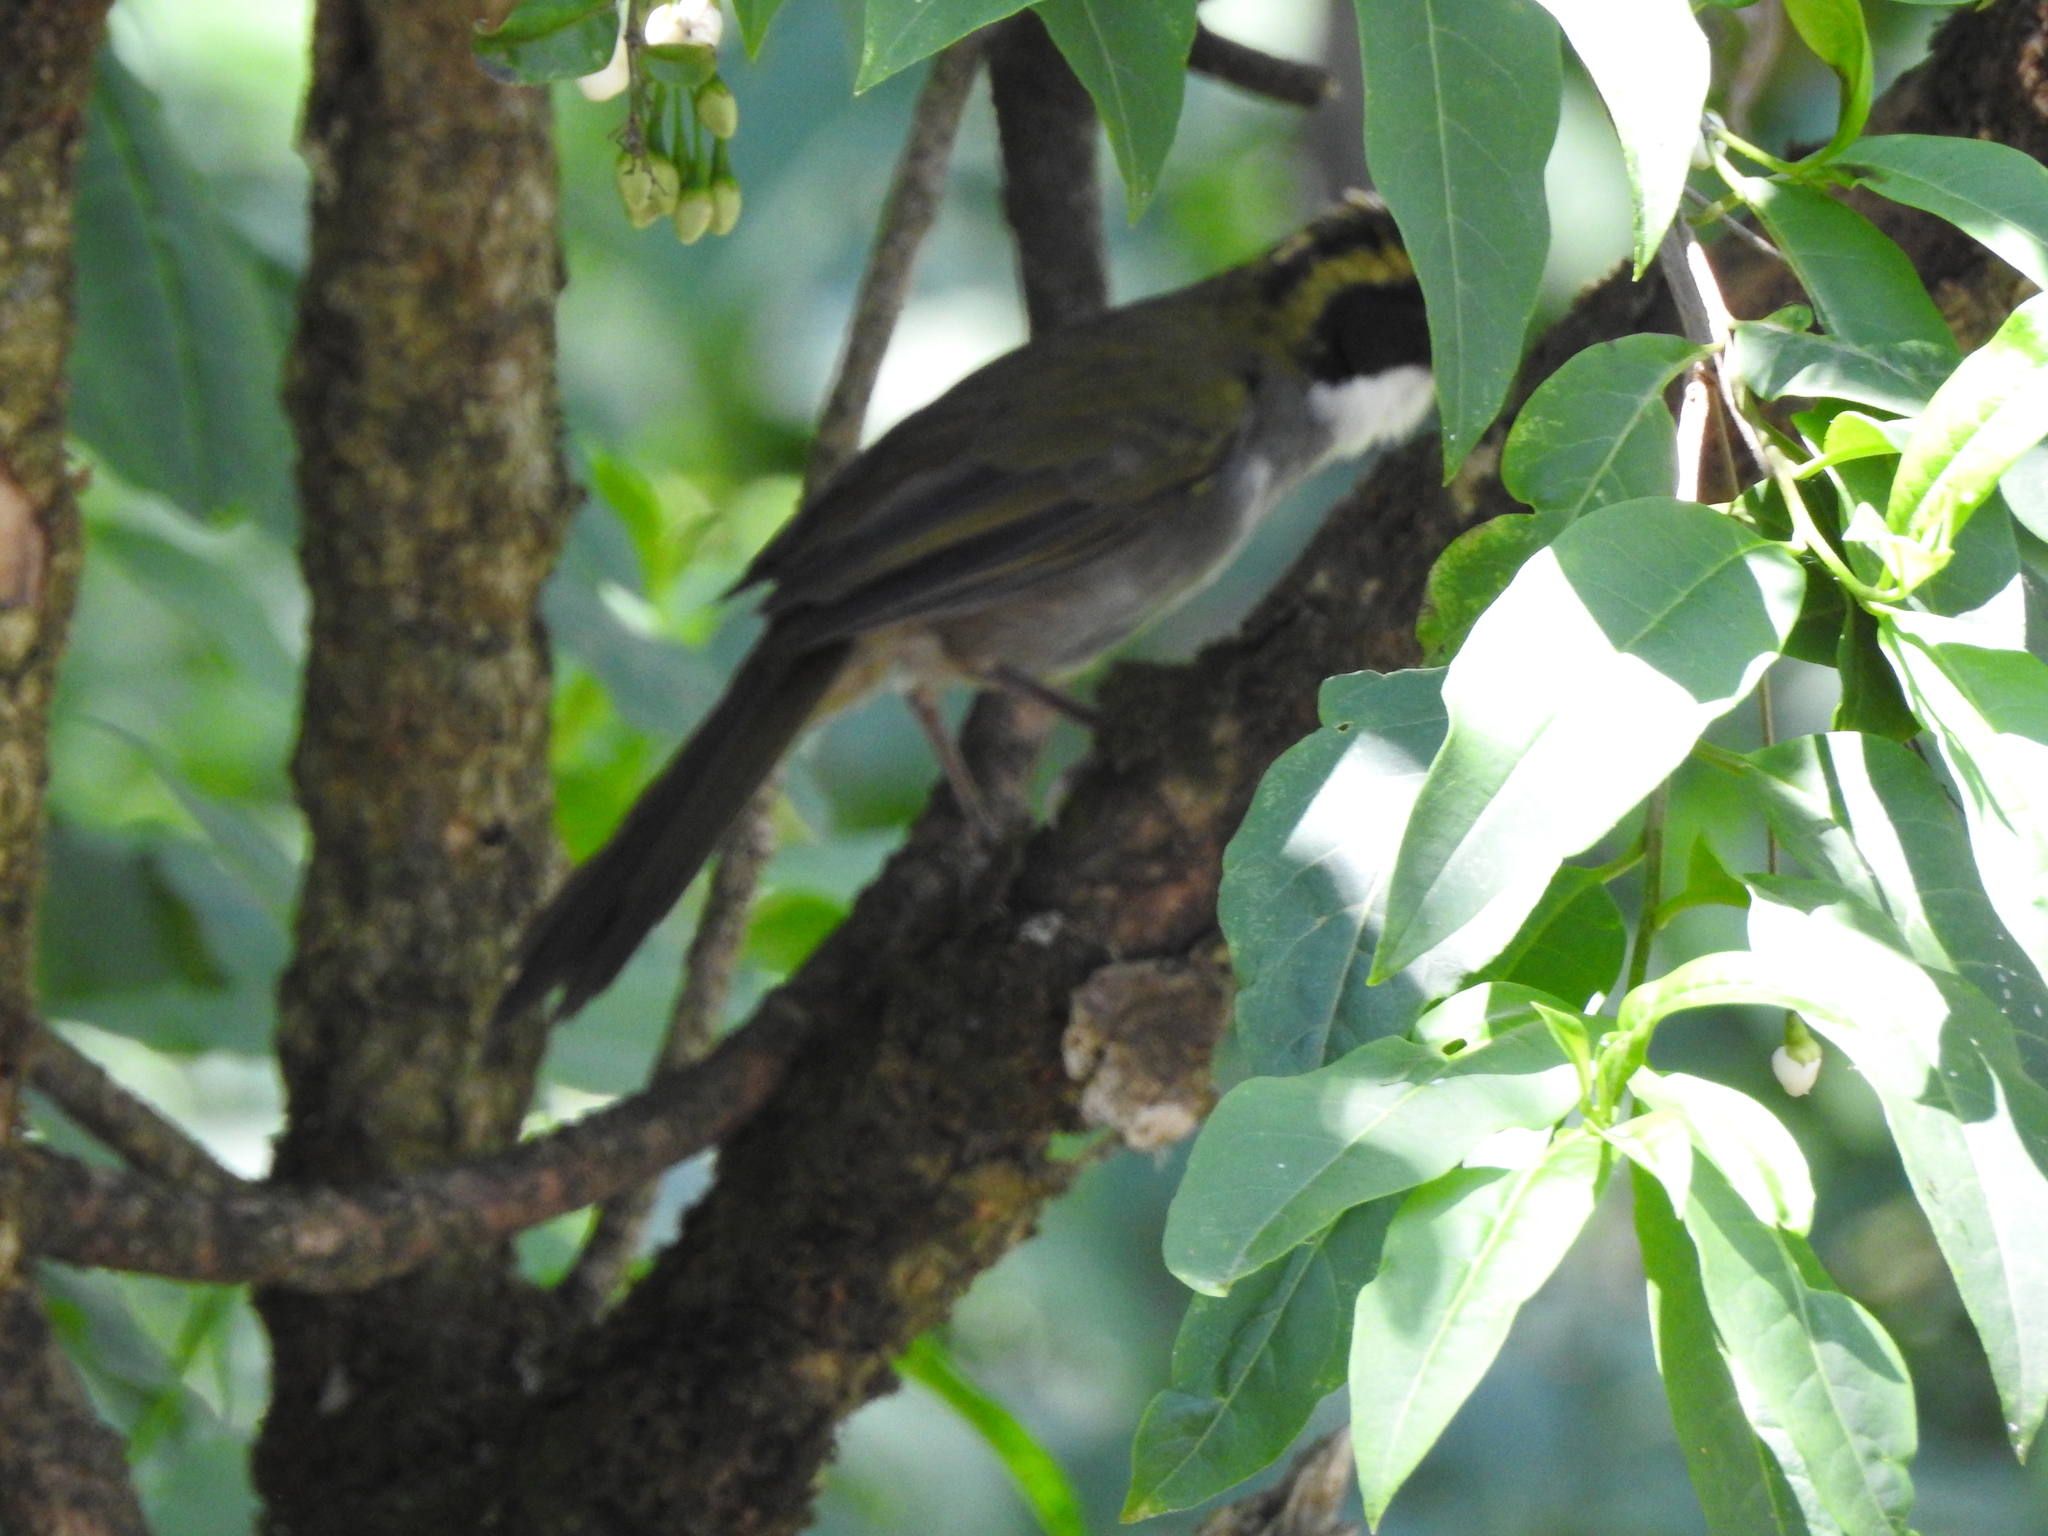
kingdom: Animalia
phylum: Chordata
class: Aves
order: Passeriformes
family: Passerellidae
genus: Arremon
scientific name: Arremon virenticeps
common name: Green-striped brushfinch
